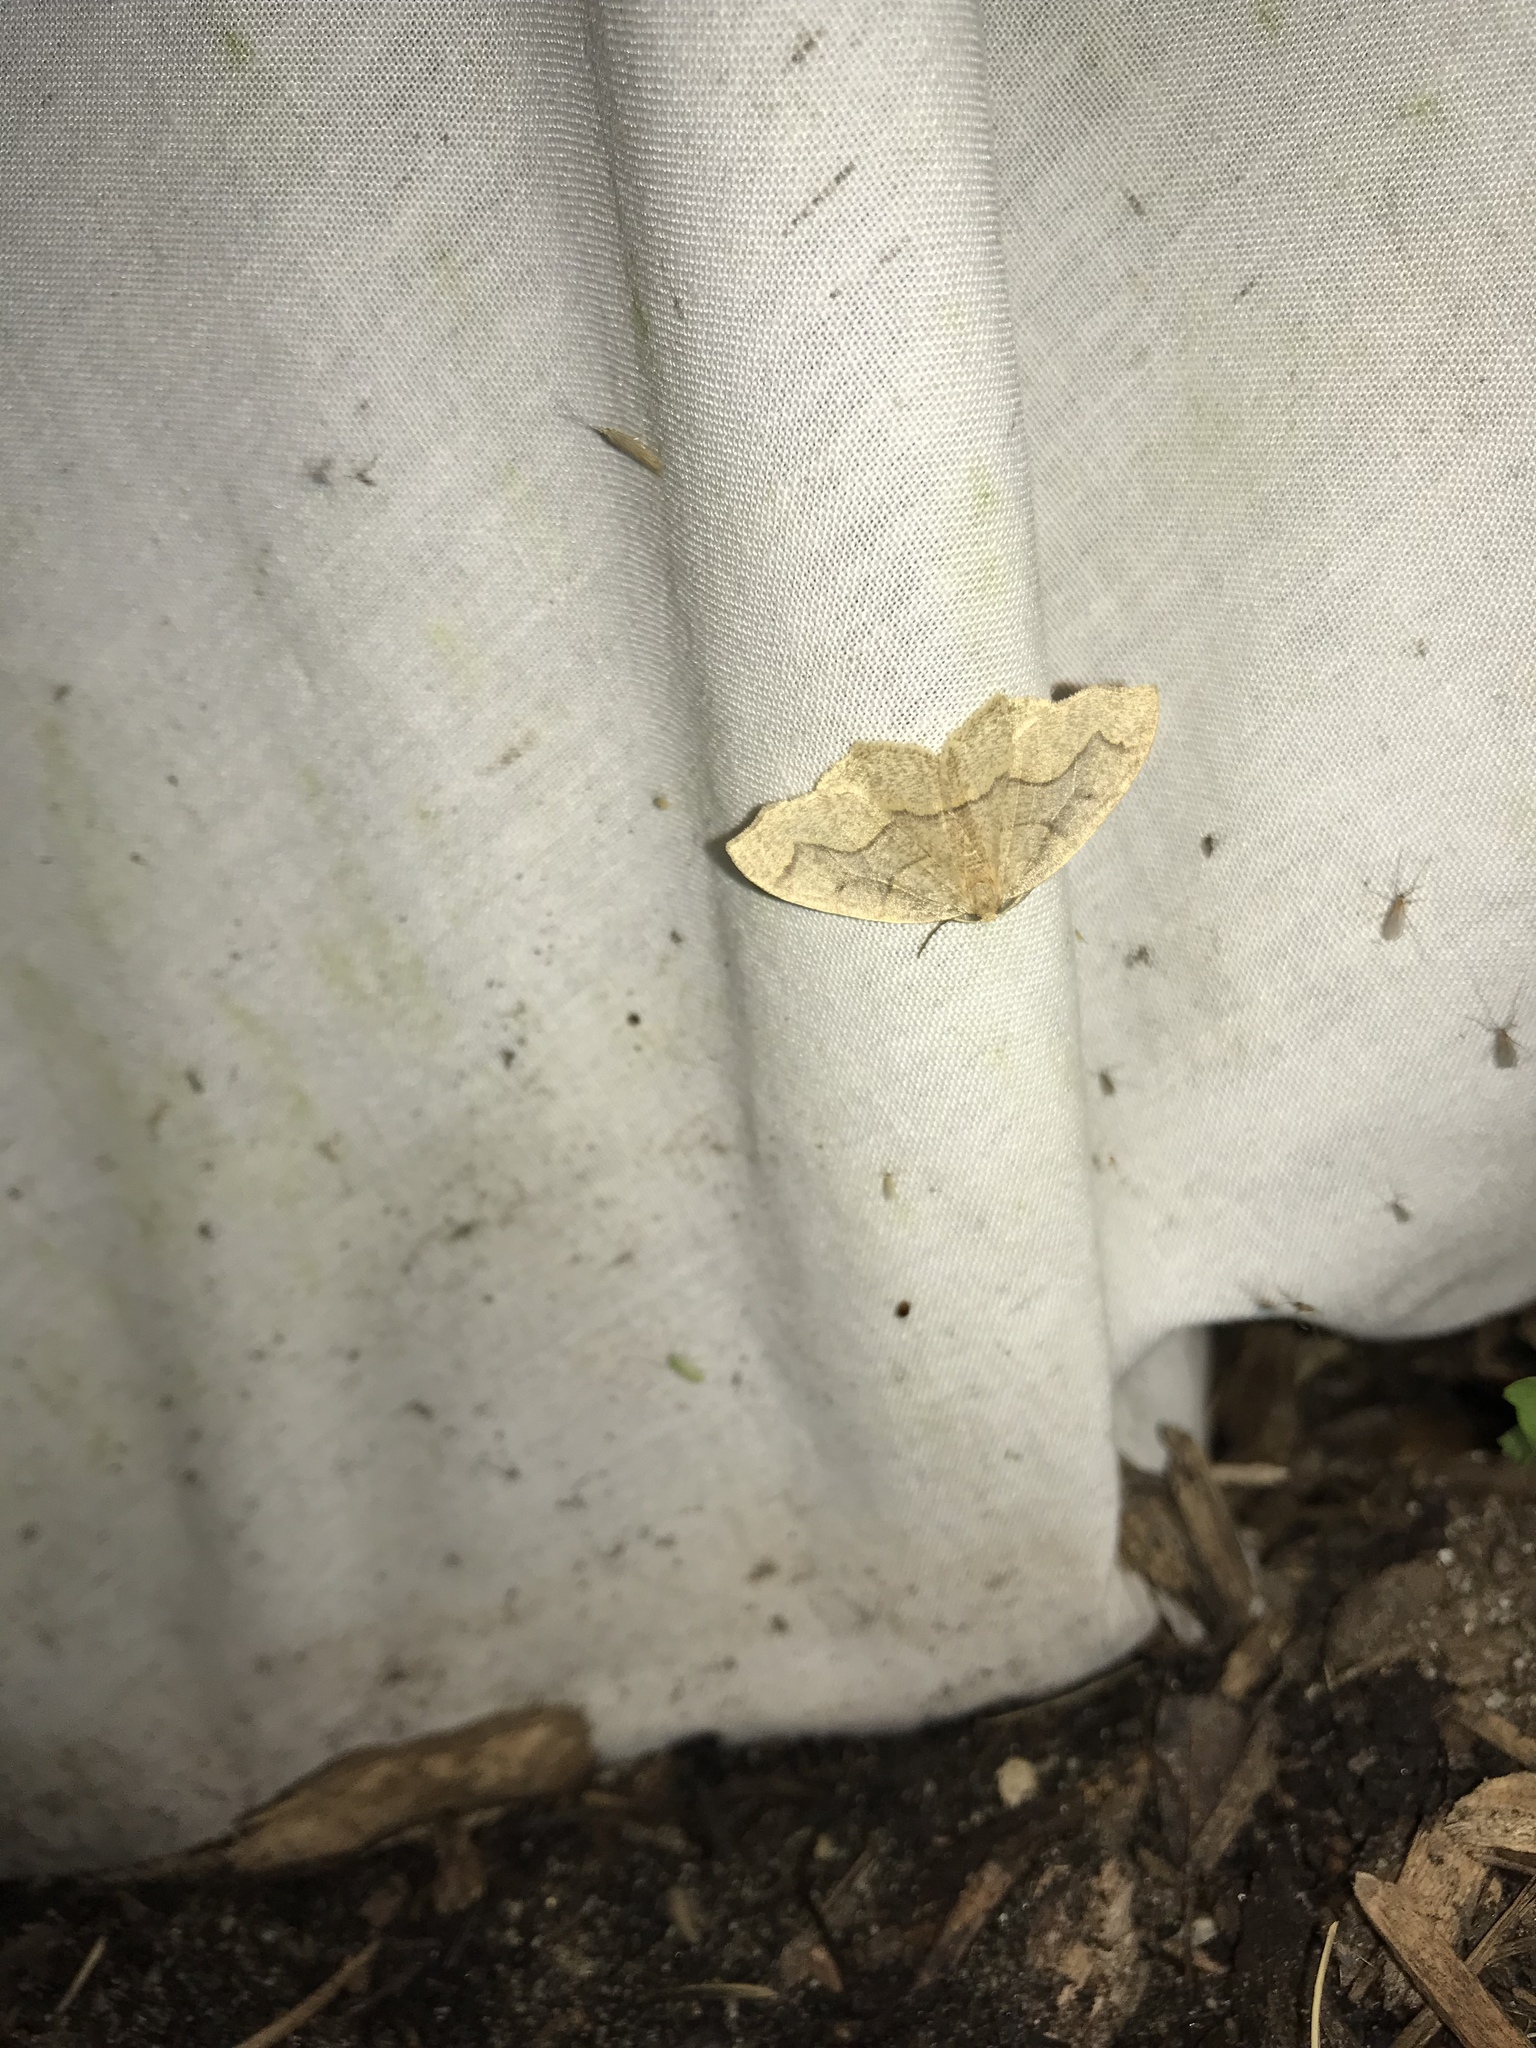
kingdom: Animalia
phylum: Arthropoda
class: Insecta
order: Lepidoptera
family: Geometridae
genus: Lambdina
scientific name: Lambdina fiscellaria
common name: Hemlock looper
